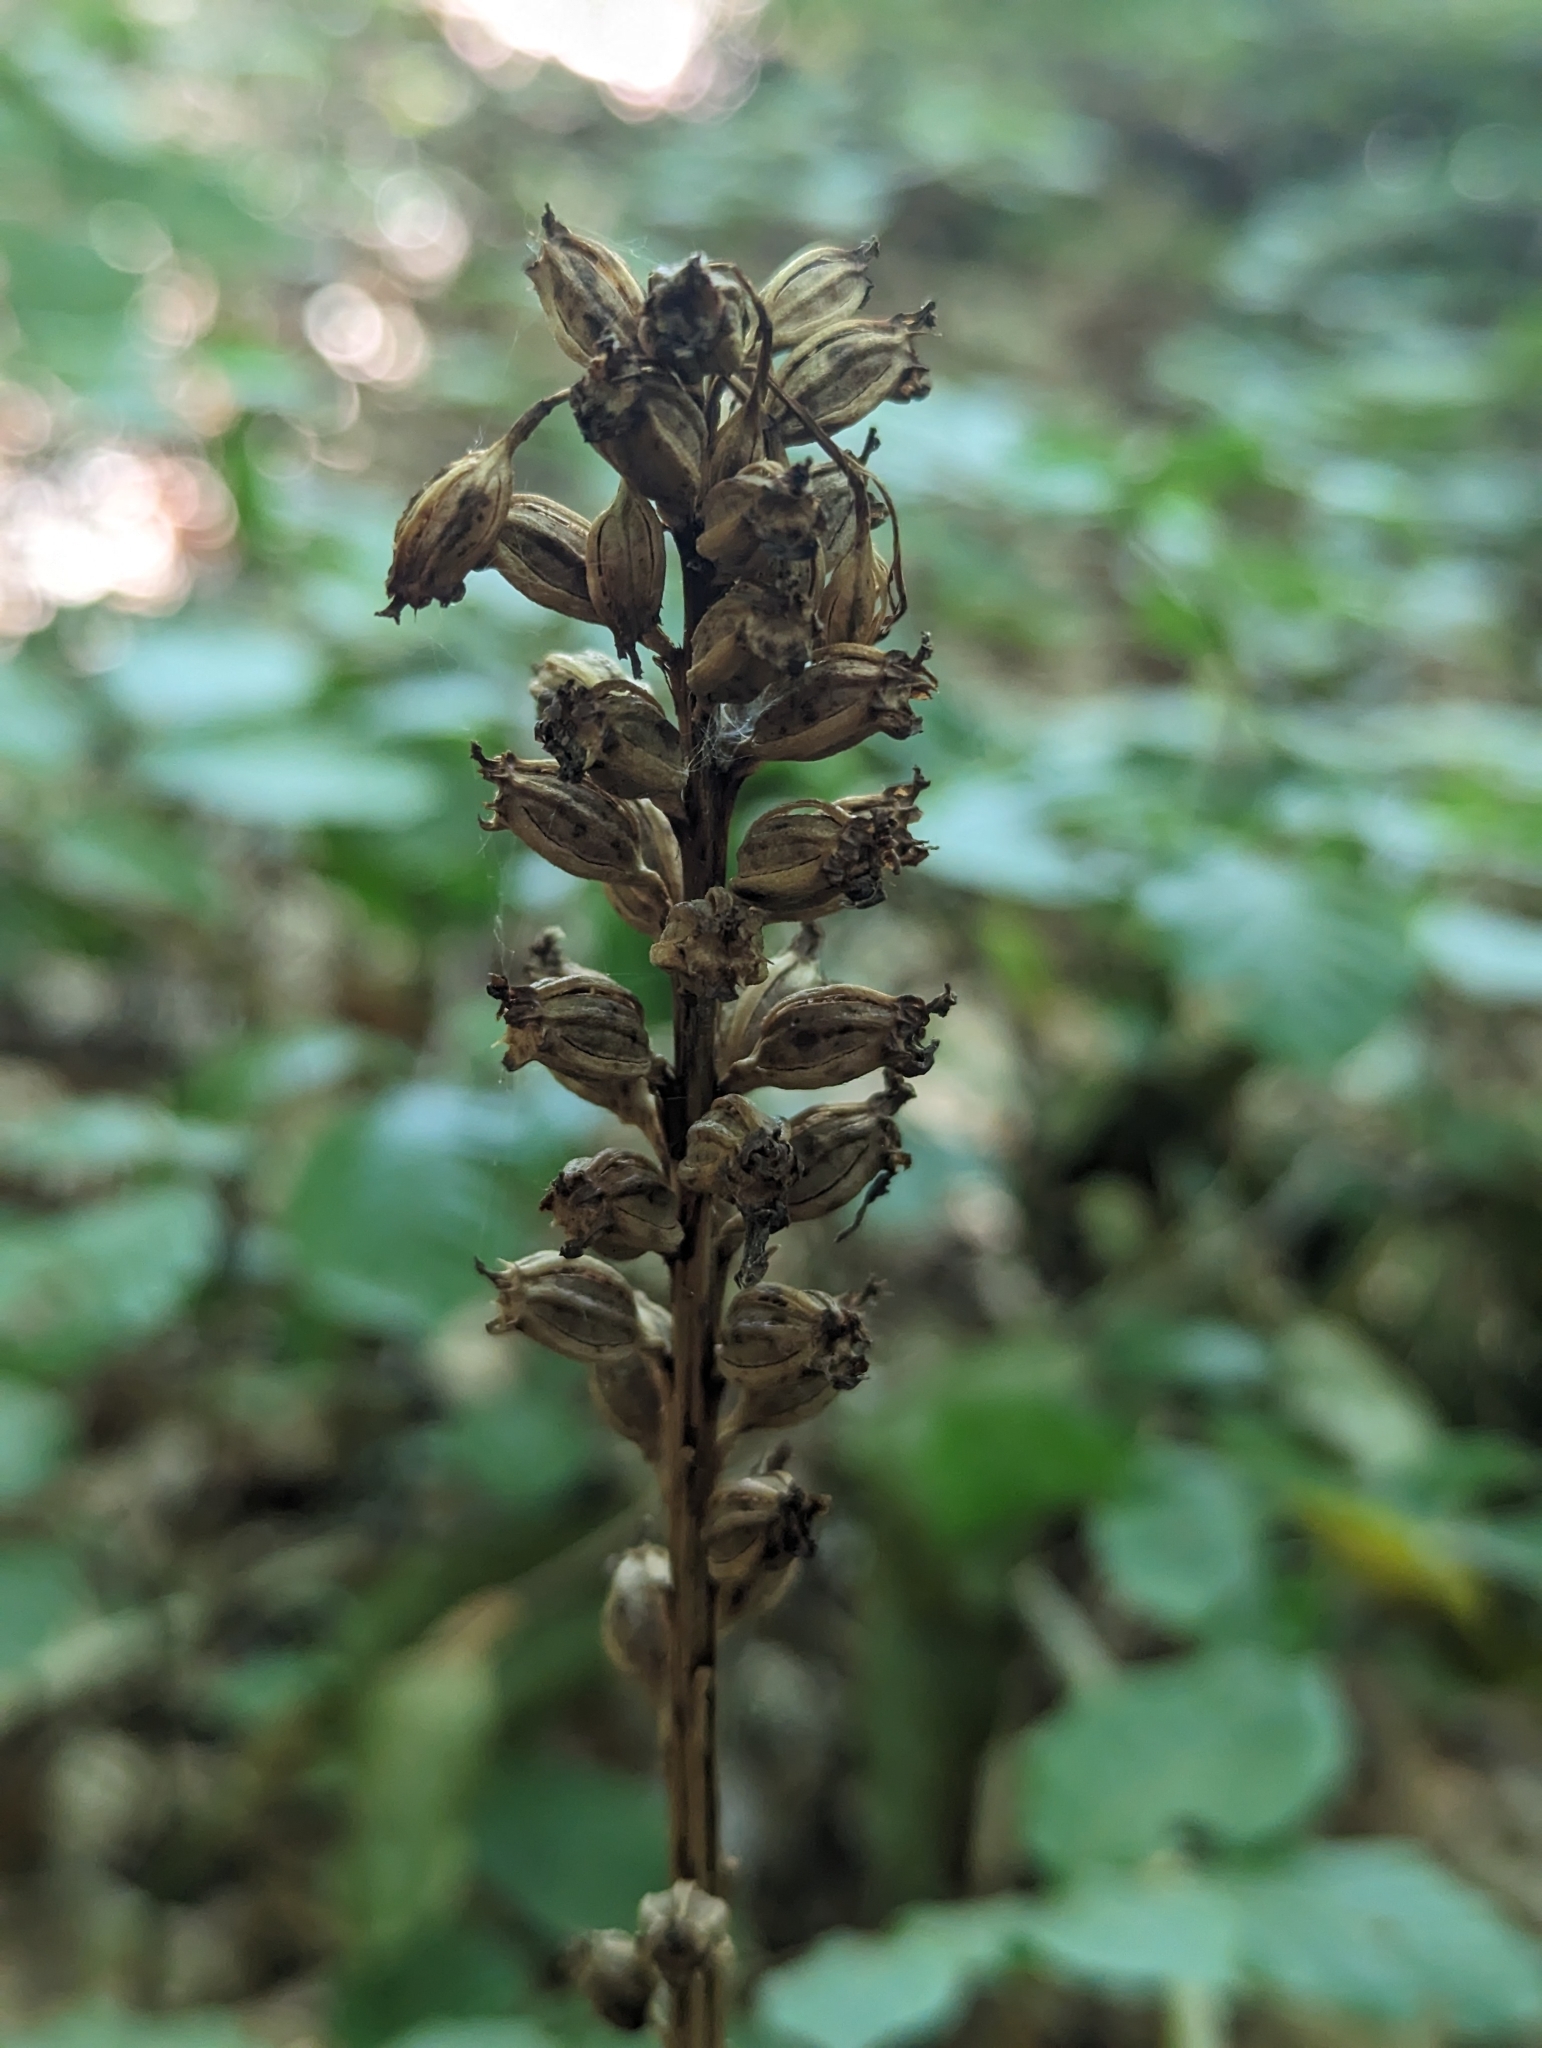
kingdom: Plantae
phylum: Tracheophyta
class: Liliopsida
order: Asparagales
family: Orchidaceae
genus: Neottia
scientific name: Neottia nidus-avis
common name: Bird's-nest orchid
